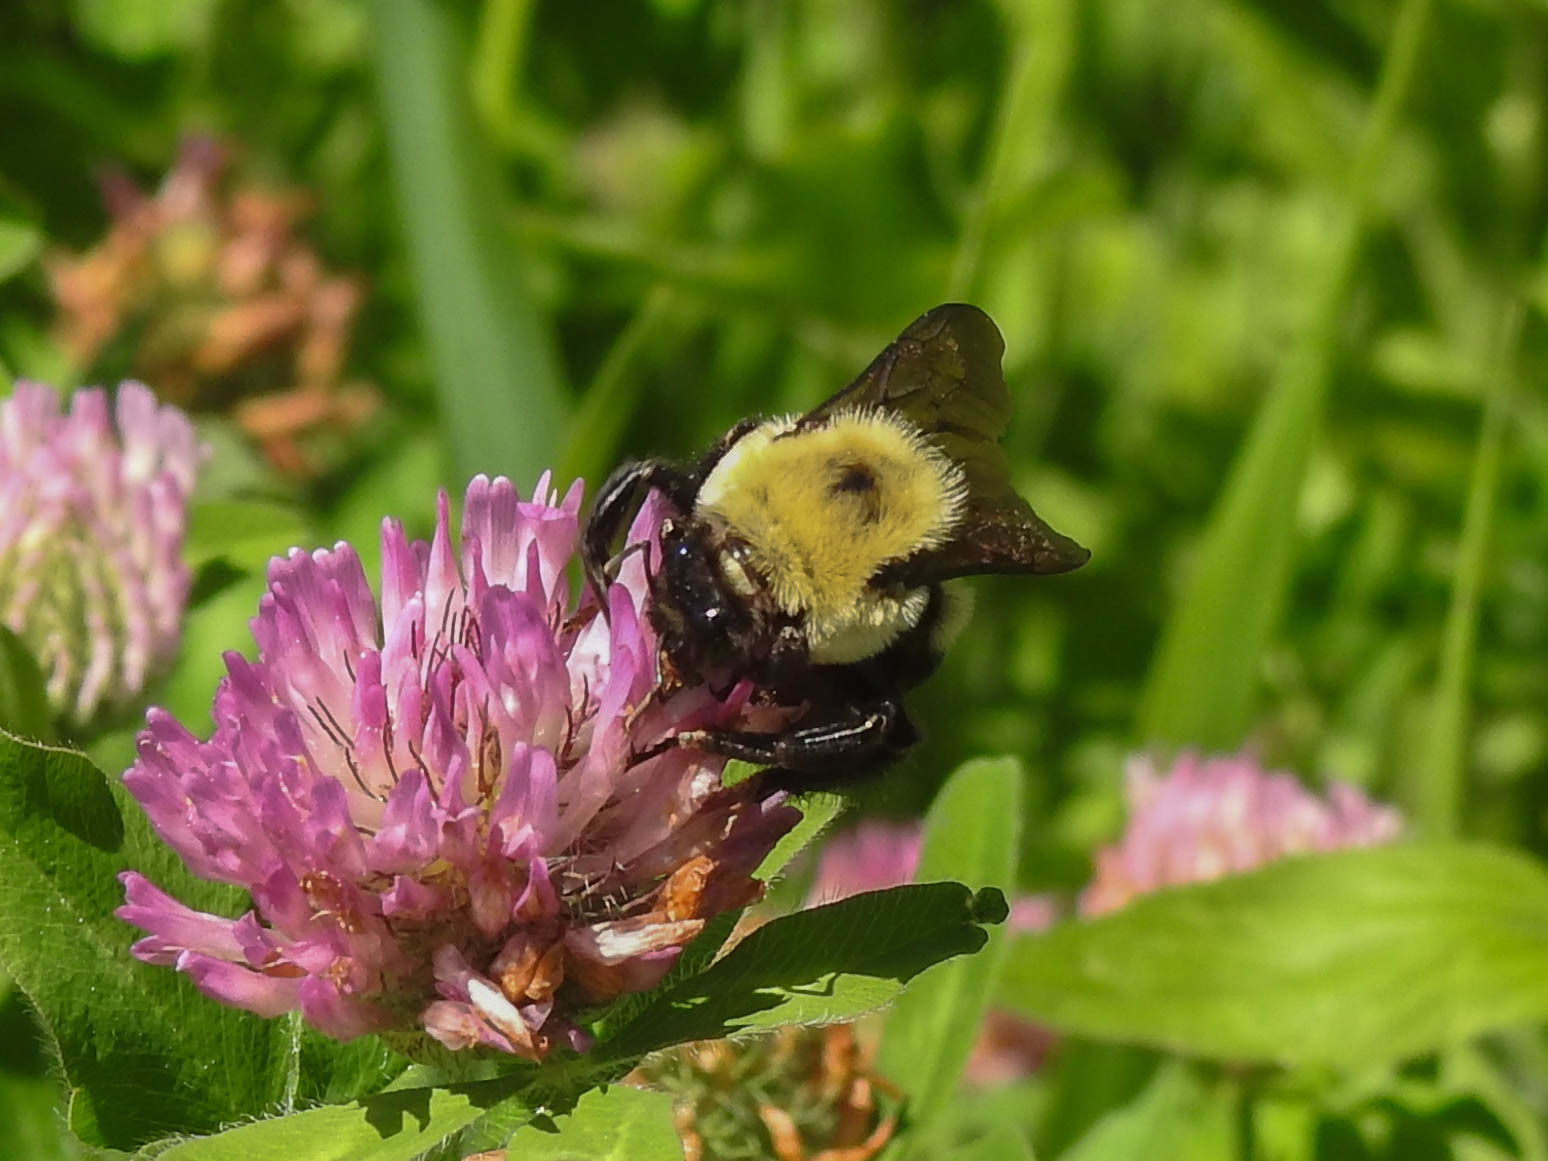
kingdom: Animalia
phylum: Arthropoda
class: Insecta
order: Hymenoptera
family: Apidae
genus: Bombus
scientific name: Bombus griseocollis
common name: Brown-belted bumble bee
